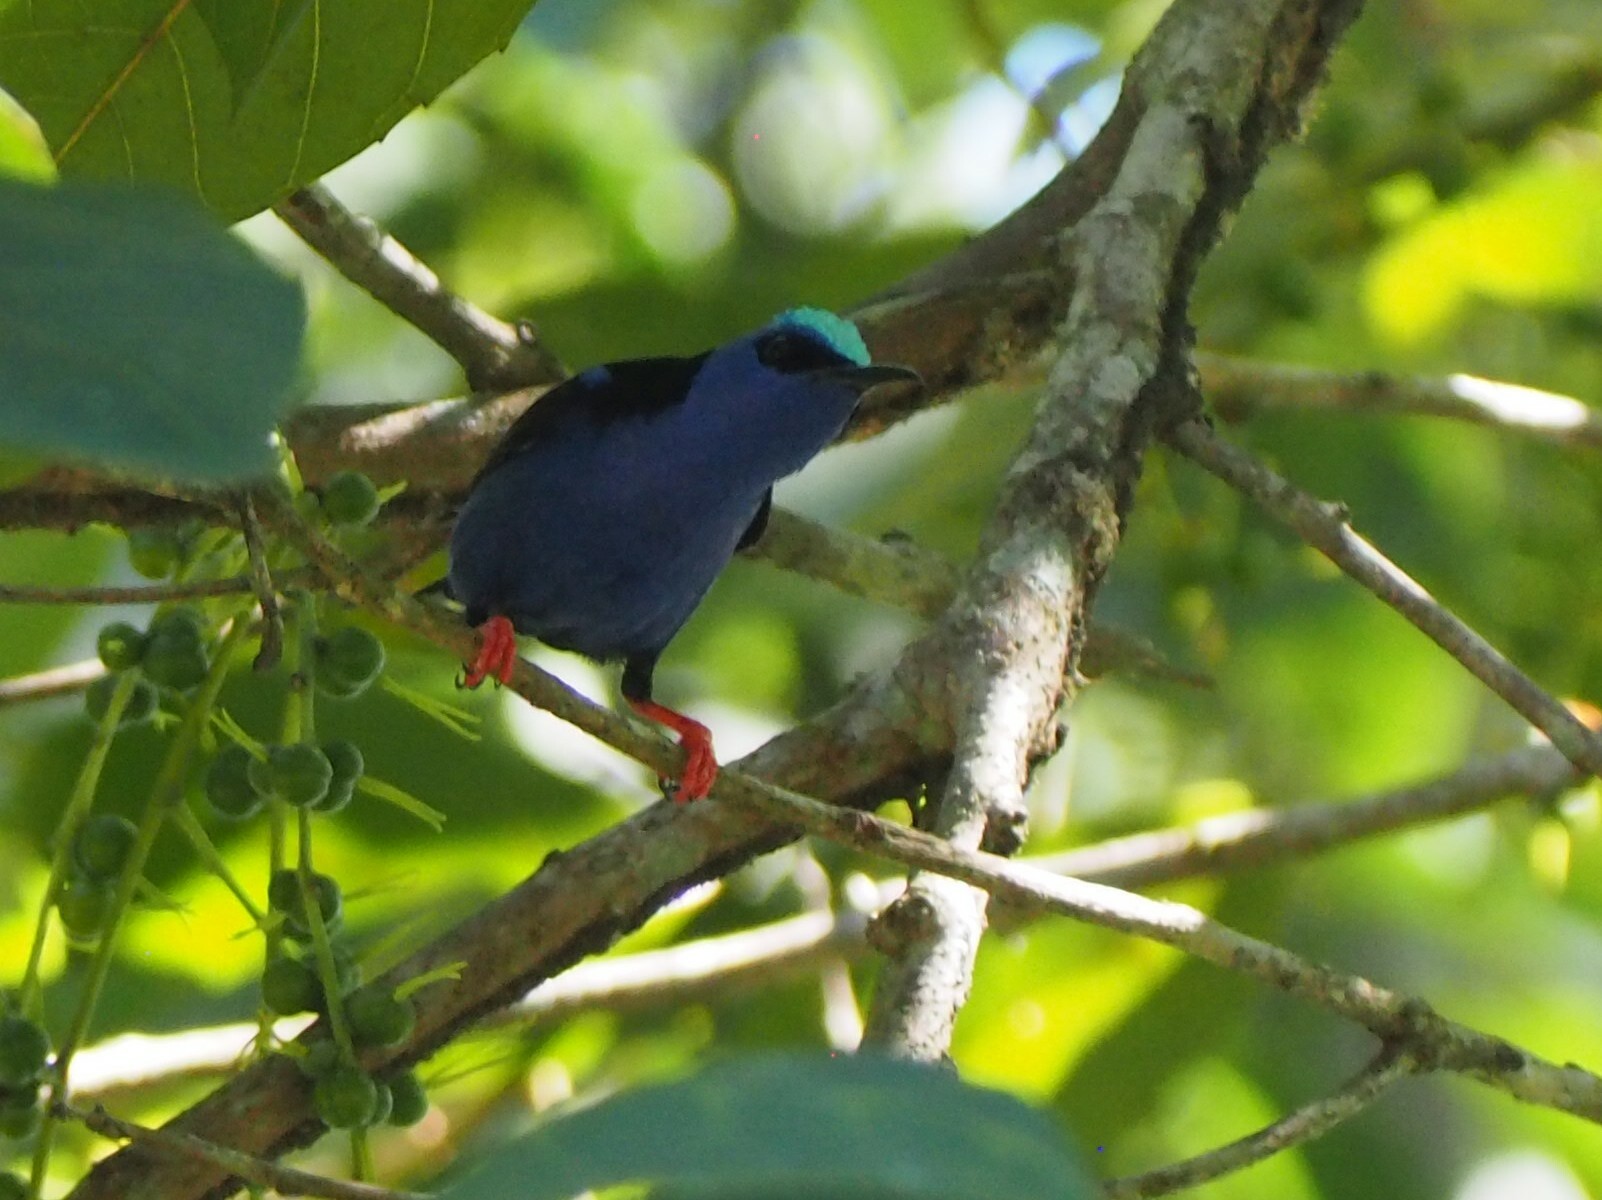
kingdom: Animalia
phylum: Chordata
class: Aves
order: Passeriformes
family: Thraupidae
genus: Cyanerpes
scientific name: Cyanerpes cyaneus
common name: Red-legged honeycreeper
